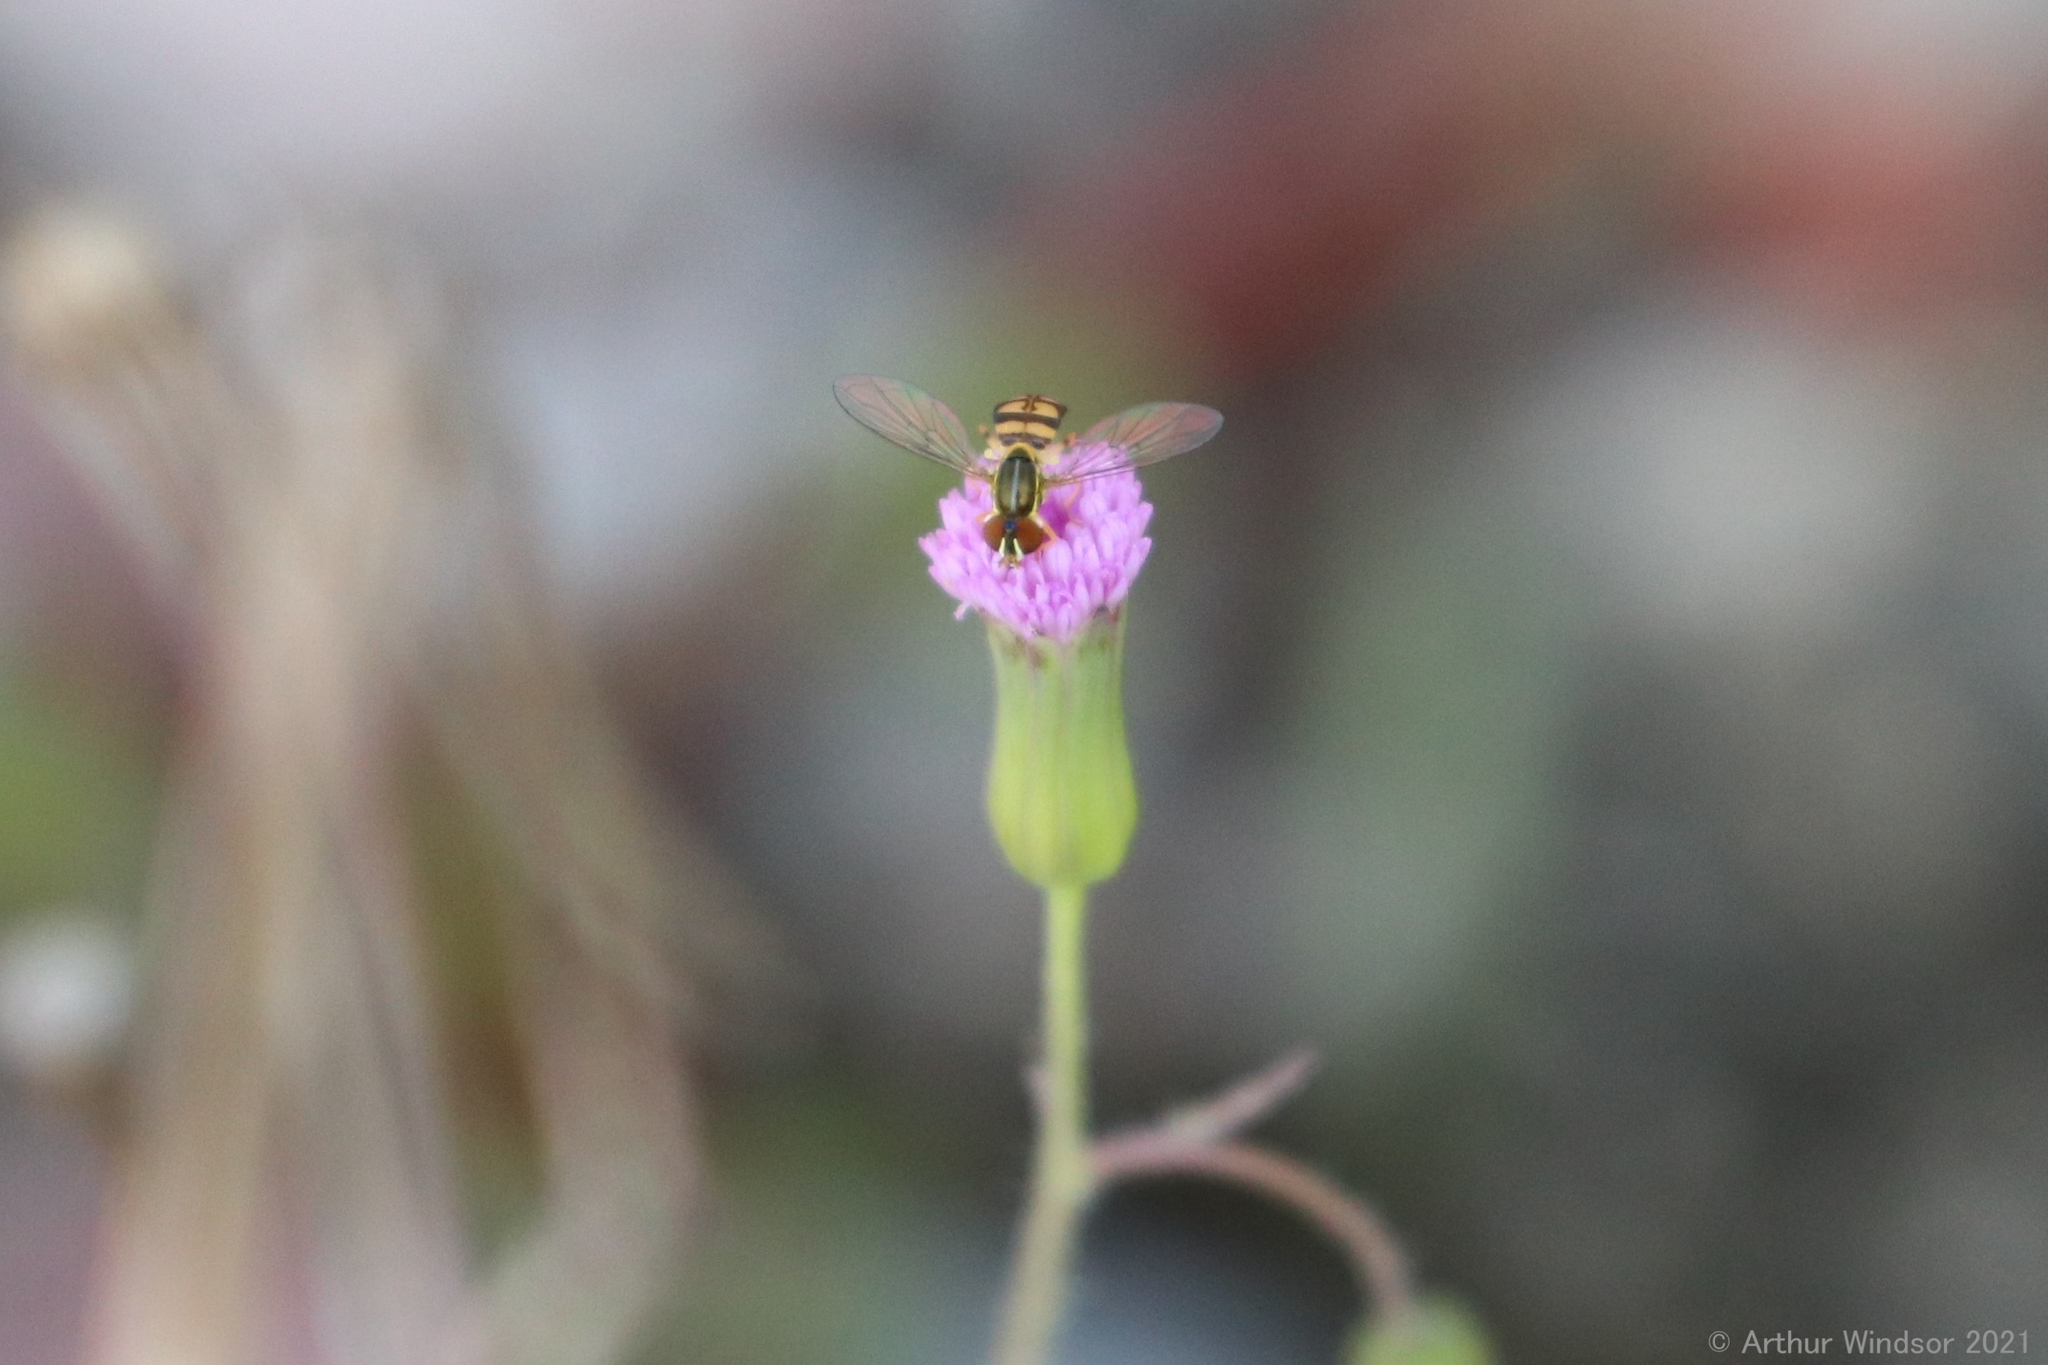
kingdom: Animalia
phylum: Arthropoda
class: Insecta
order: Diptera
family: Syrphidae
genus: Toxomerus
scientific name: Toxomerus floralis
